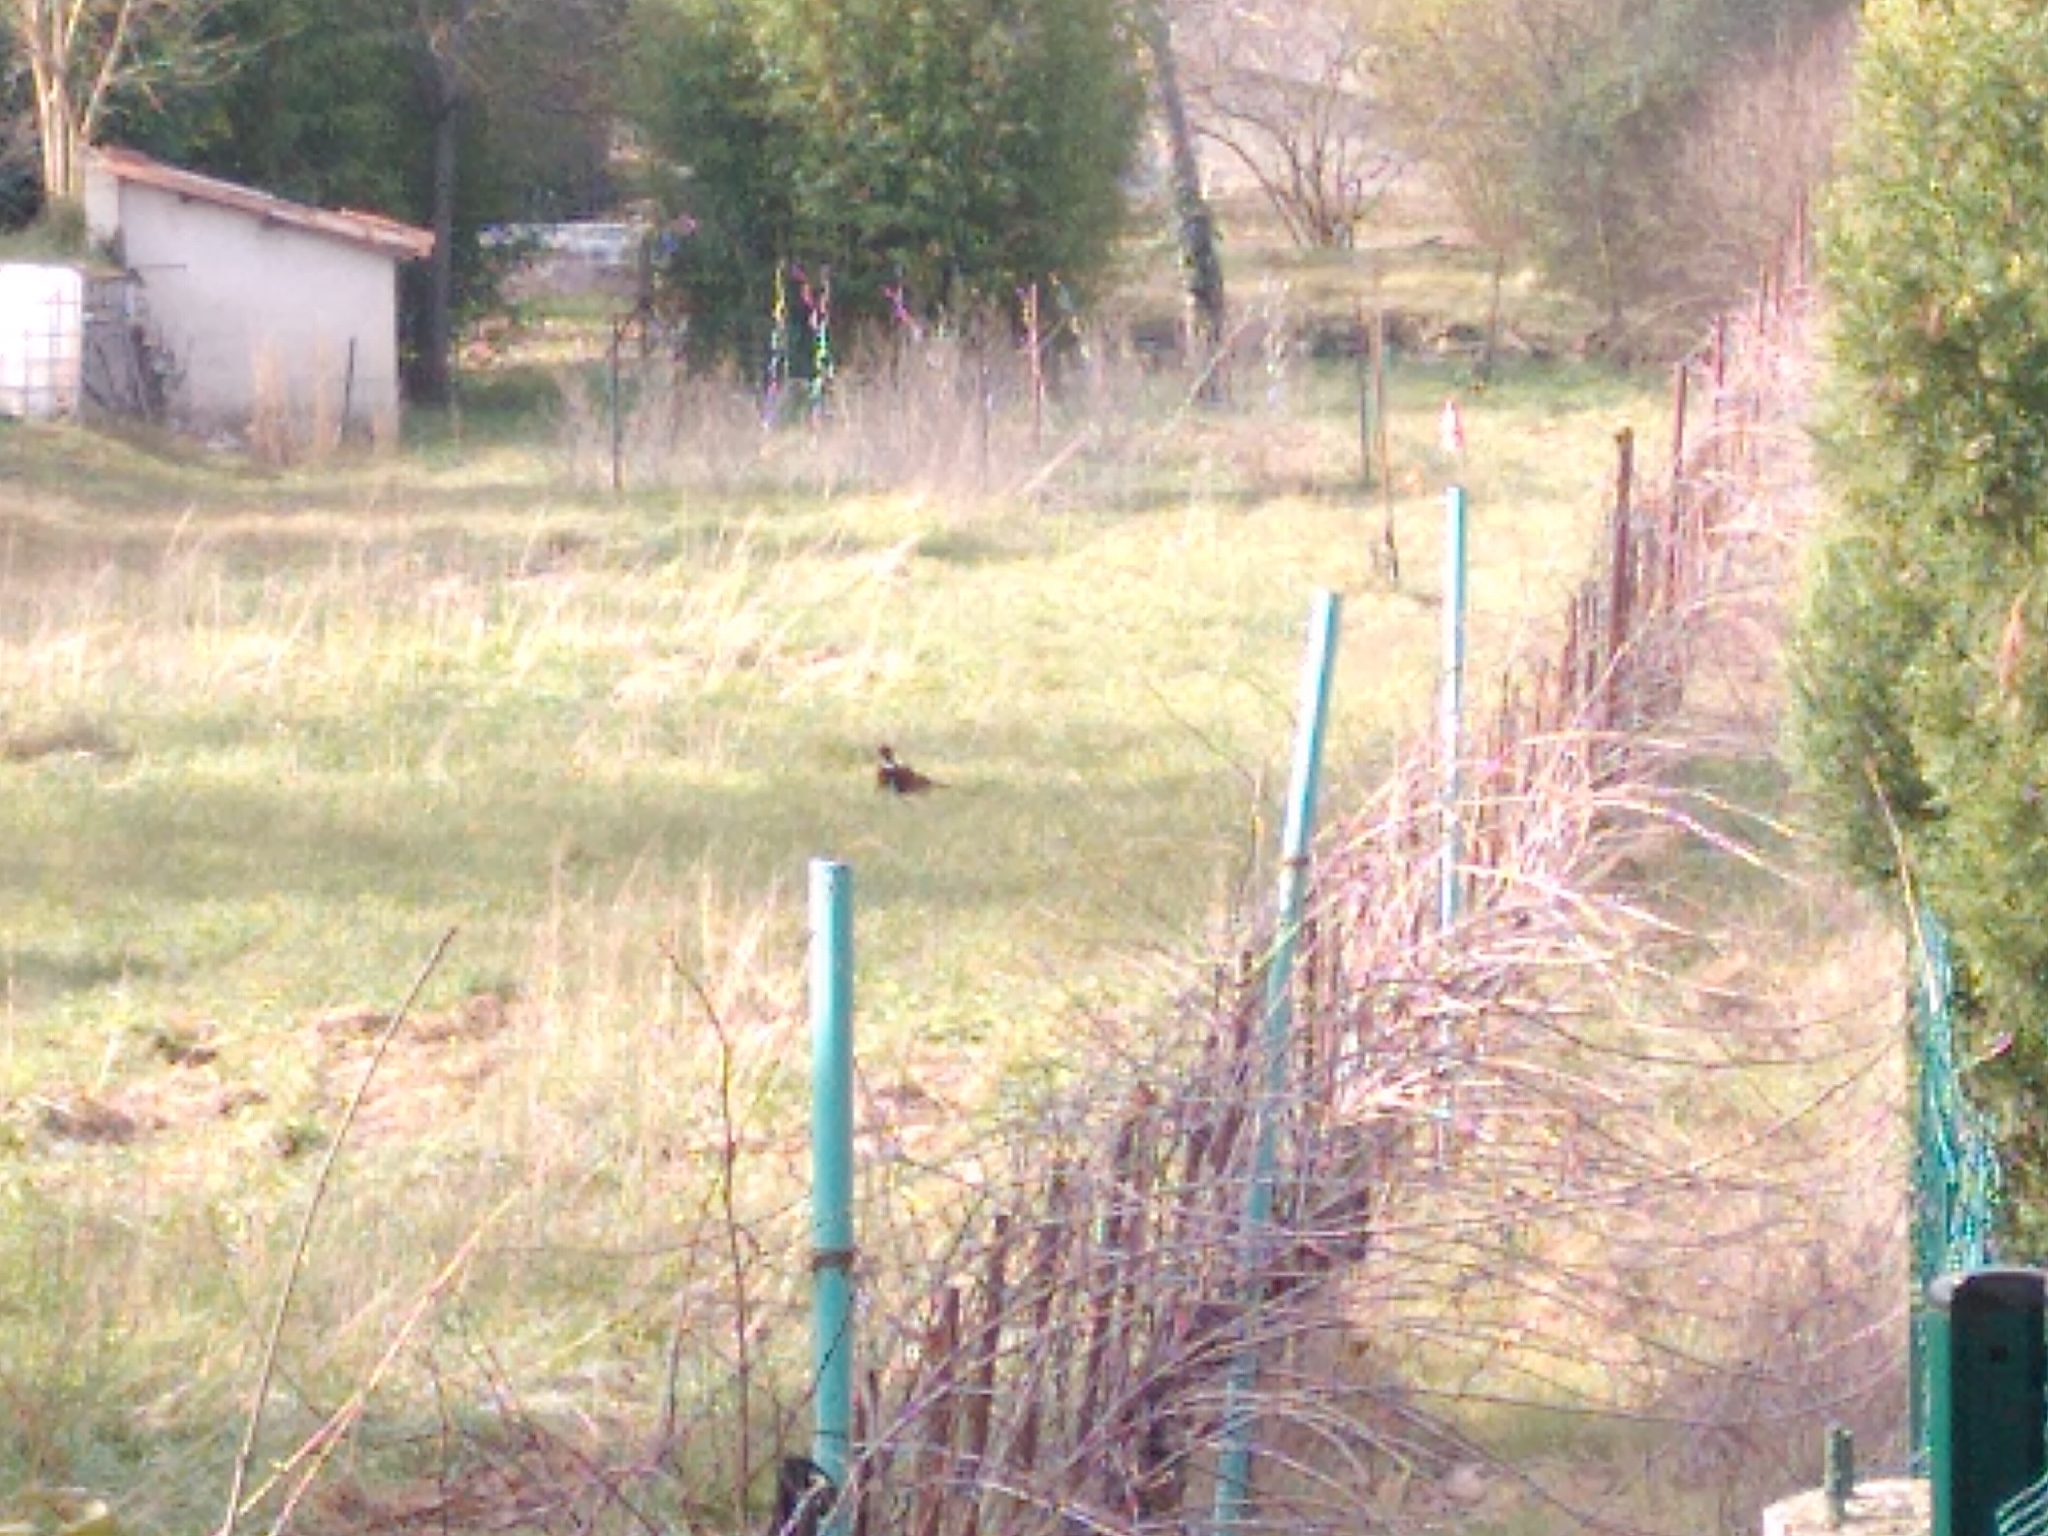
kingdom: Animalia
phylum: Chordata
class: Aves
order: Galliformes
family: Phasianidae
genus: Phasianus
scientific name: Phasianus colchicus
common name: Common pheasant
